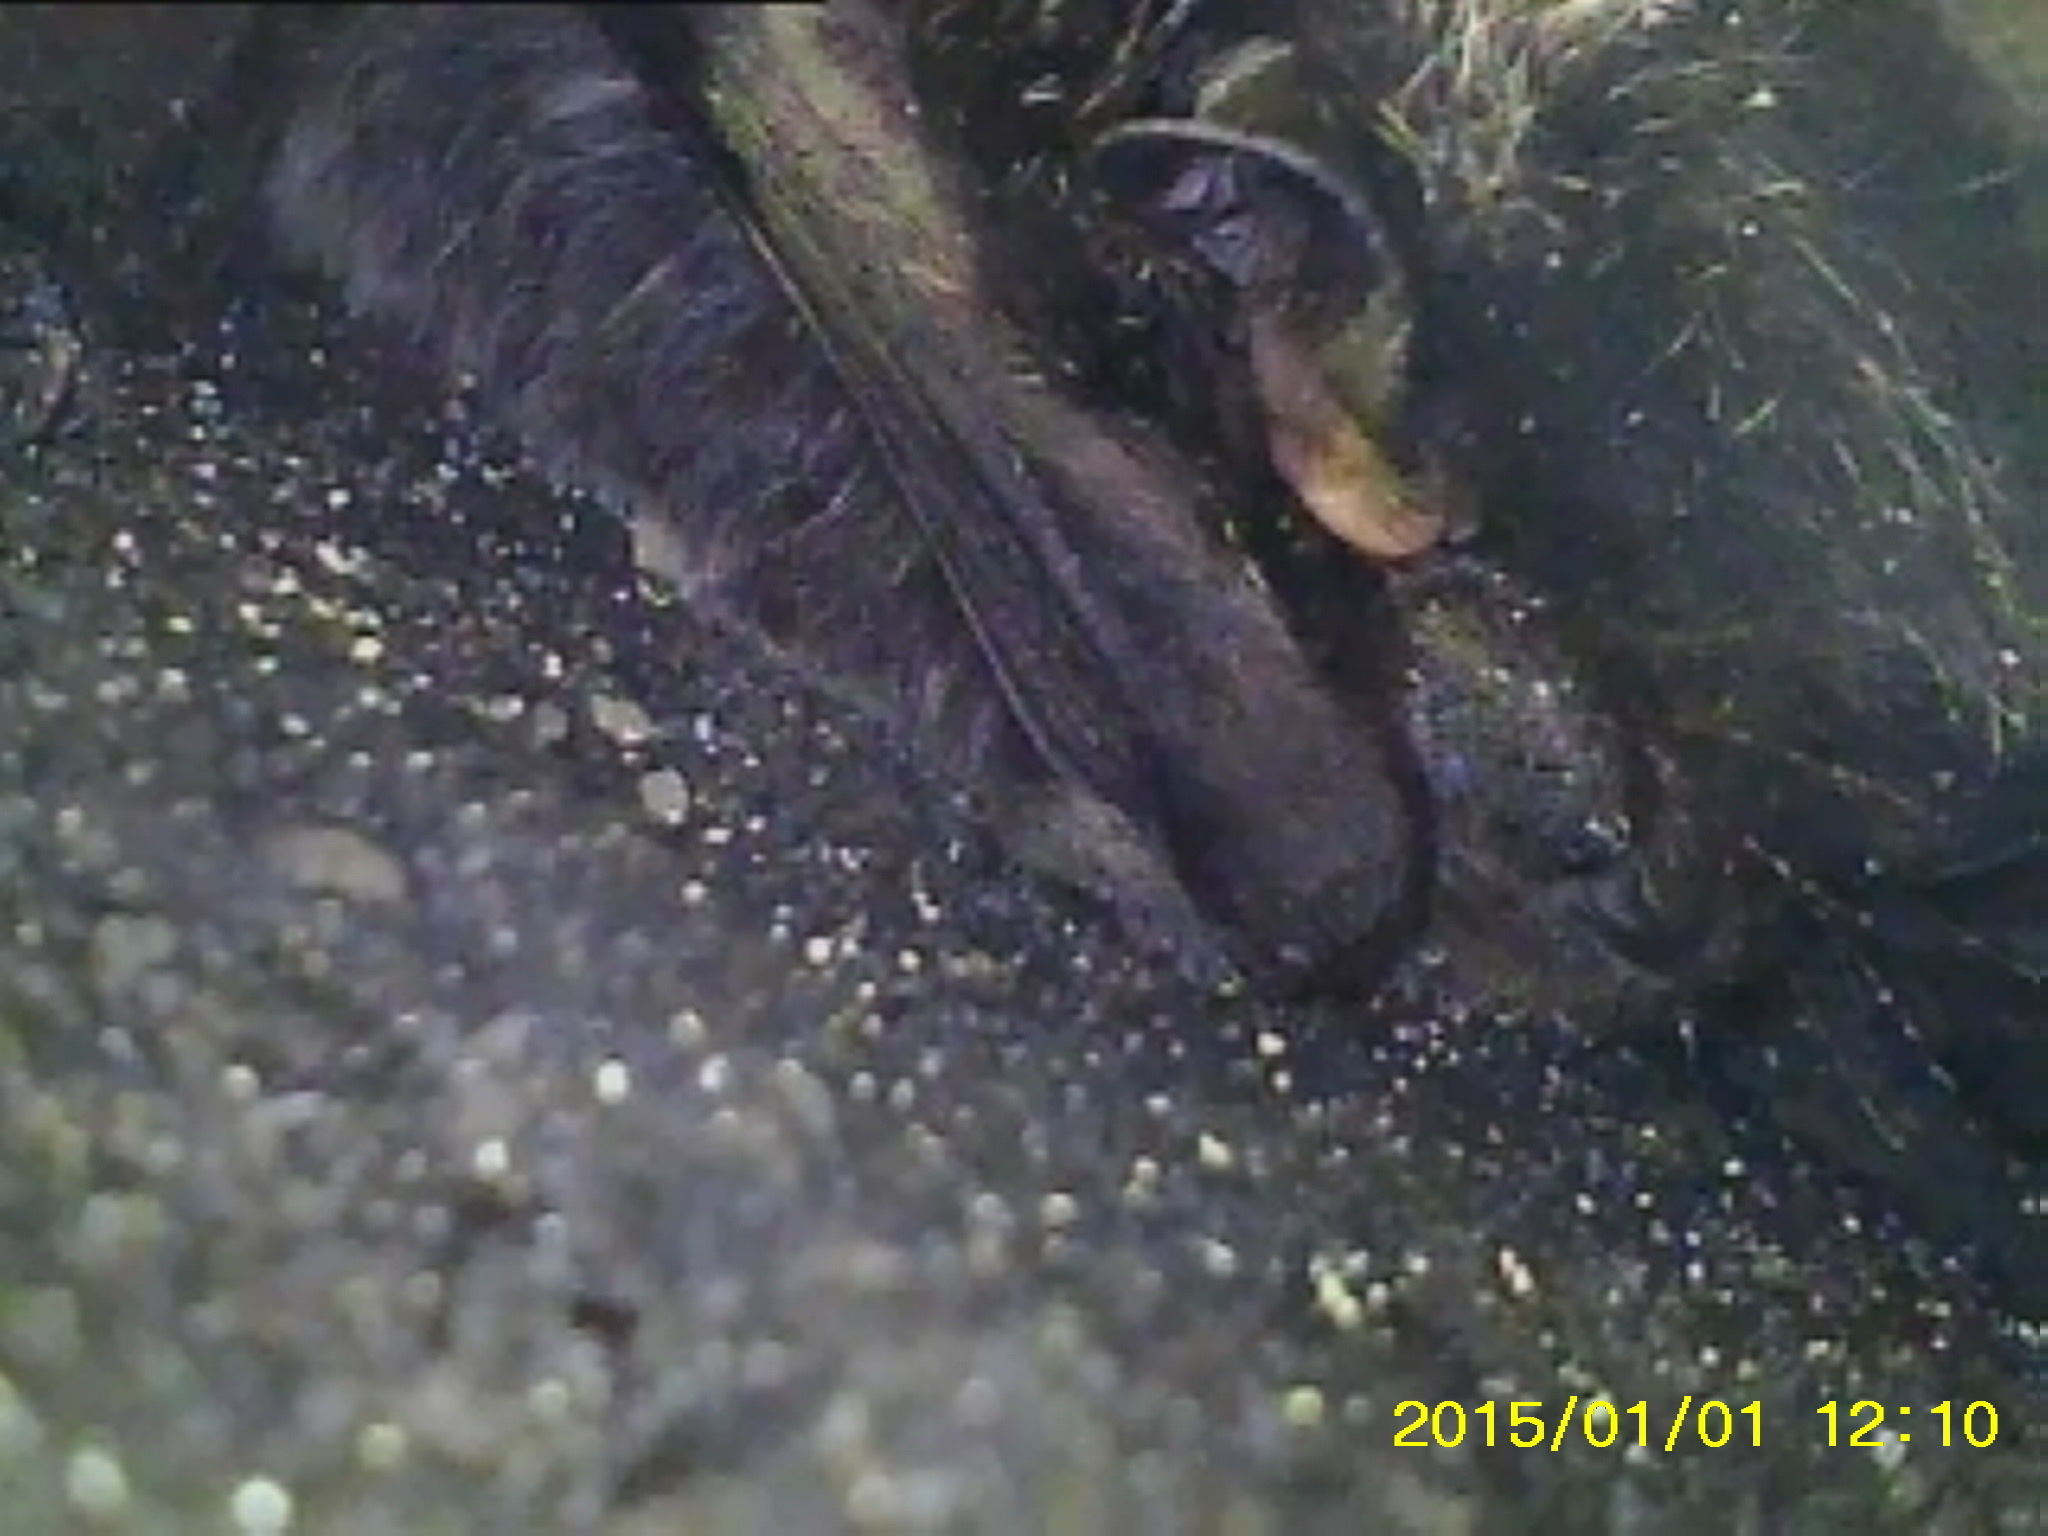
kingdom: Animalia
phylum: Chordata
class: Mammalia
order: Chiroptera
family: Vespertilionidae
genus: Lasionycteris
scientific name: Lasionycteris noctivagans
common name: Silver-haired bat
